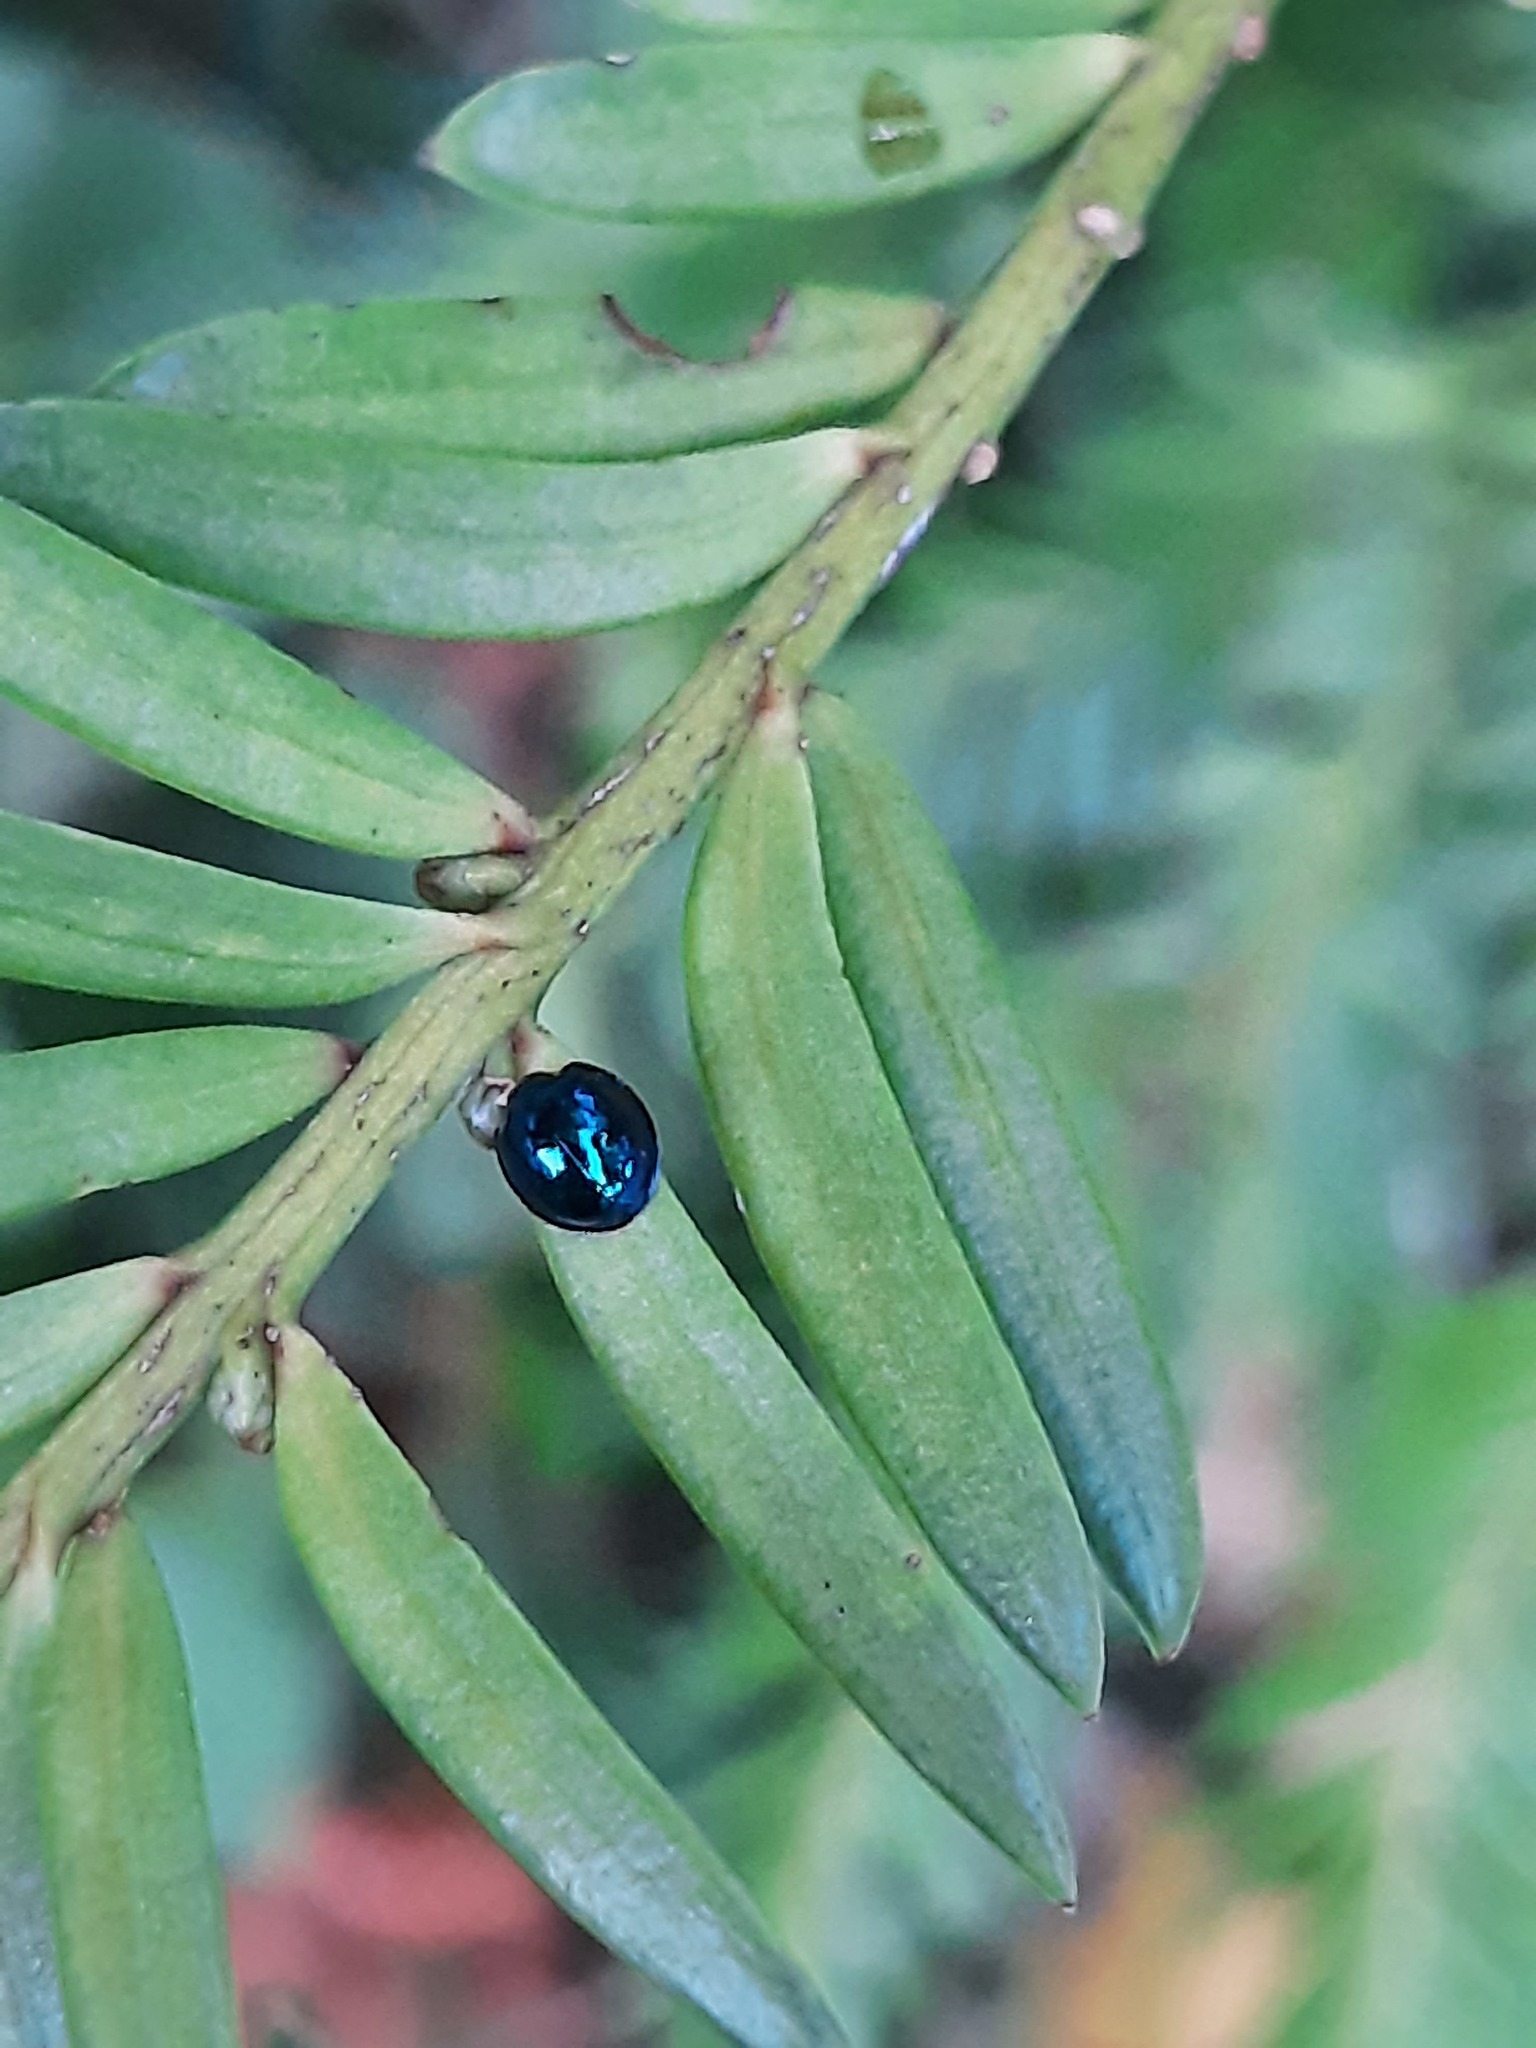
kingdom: Animalia
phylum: Arthropoda
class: Insecta
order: Coleoptera
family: Coccinellidae
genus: Halmus
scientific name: Halmus chalybeus
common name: Steel blue ladybird beetle
